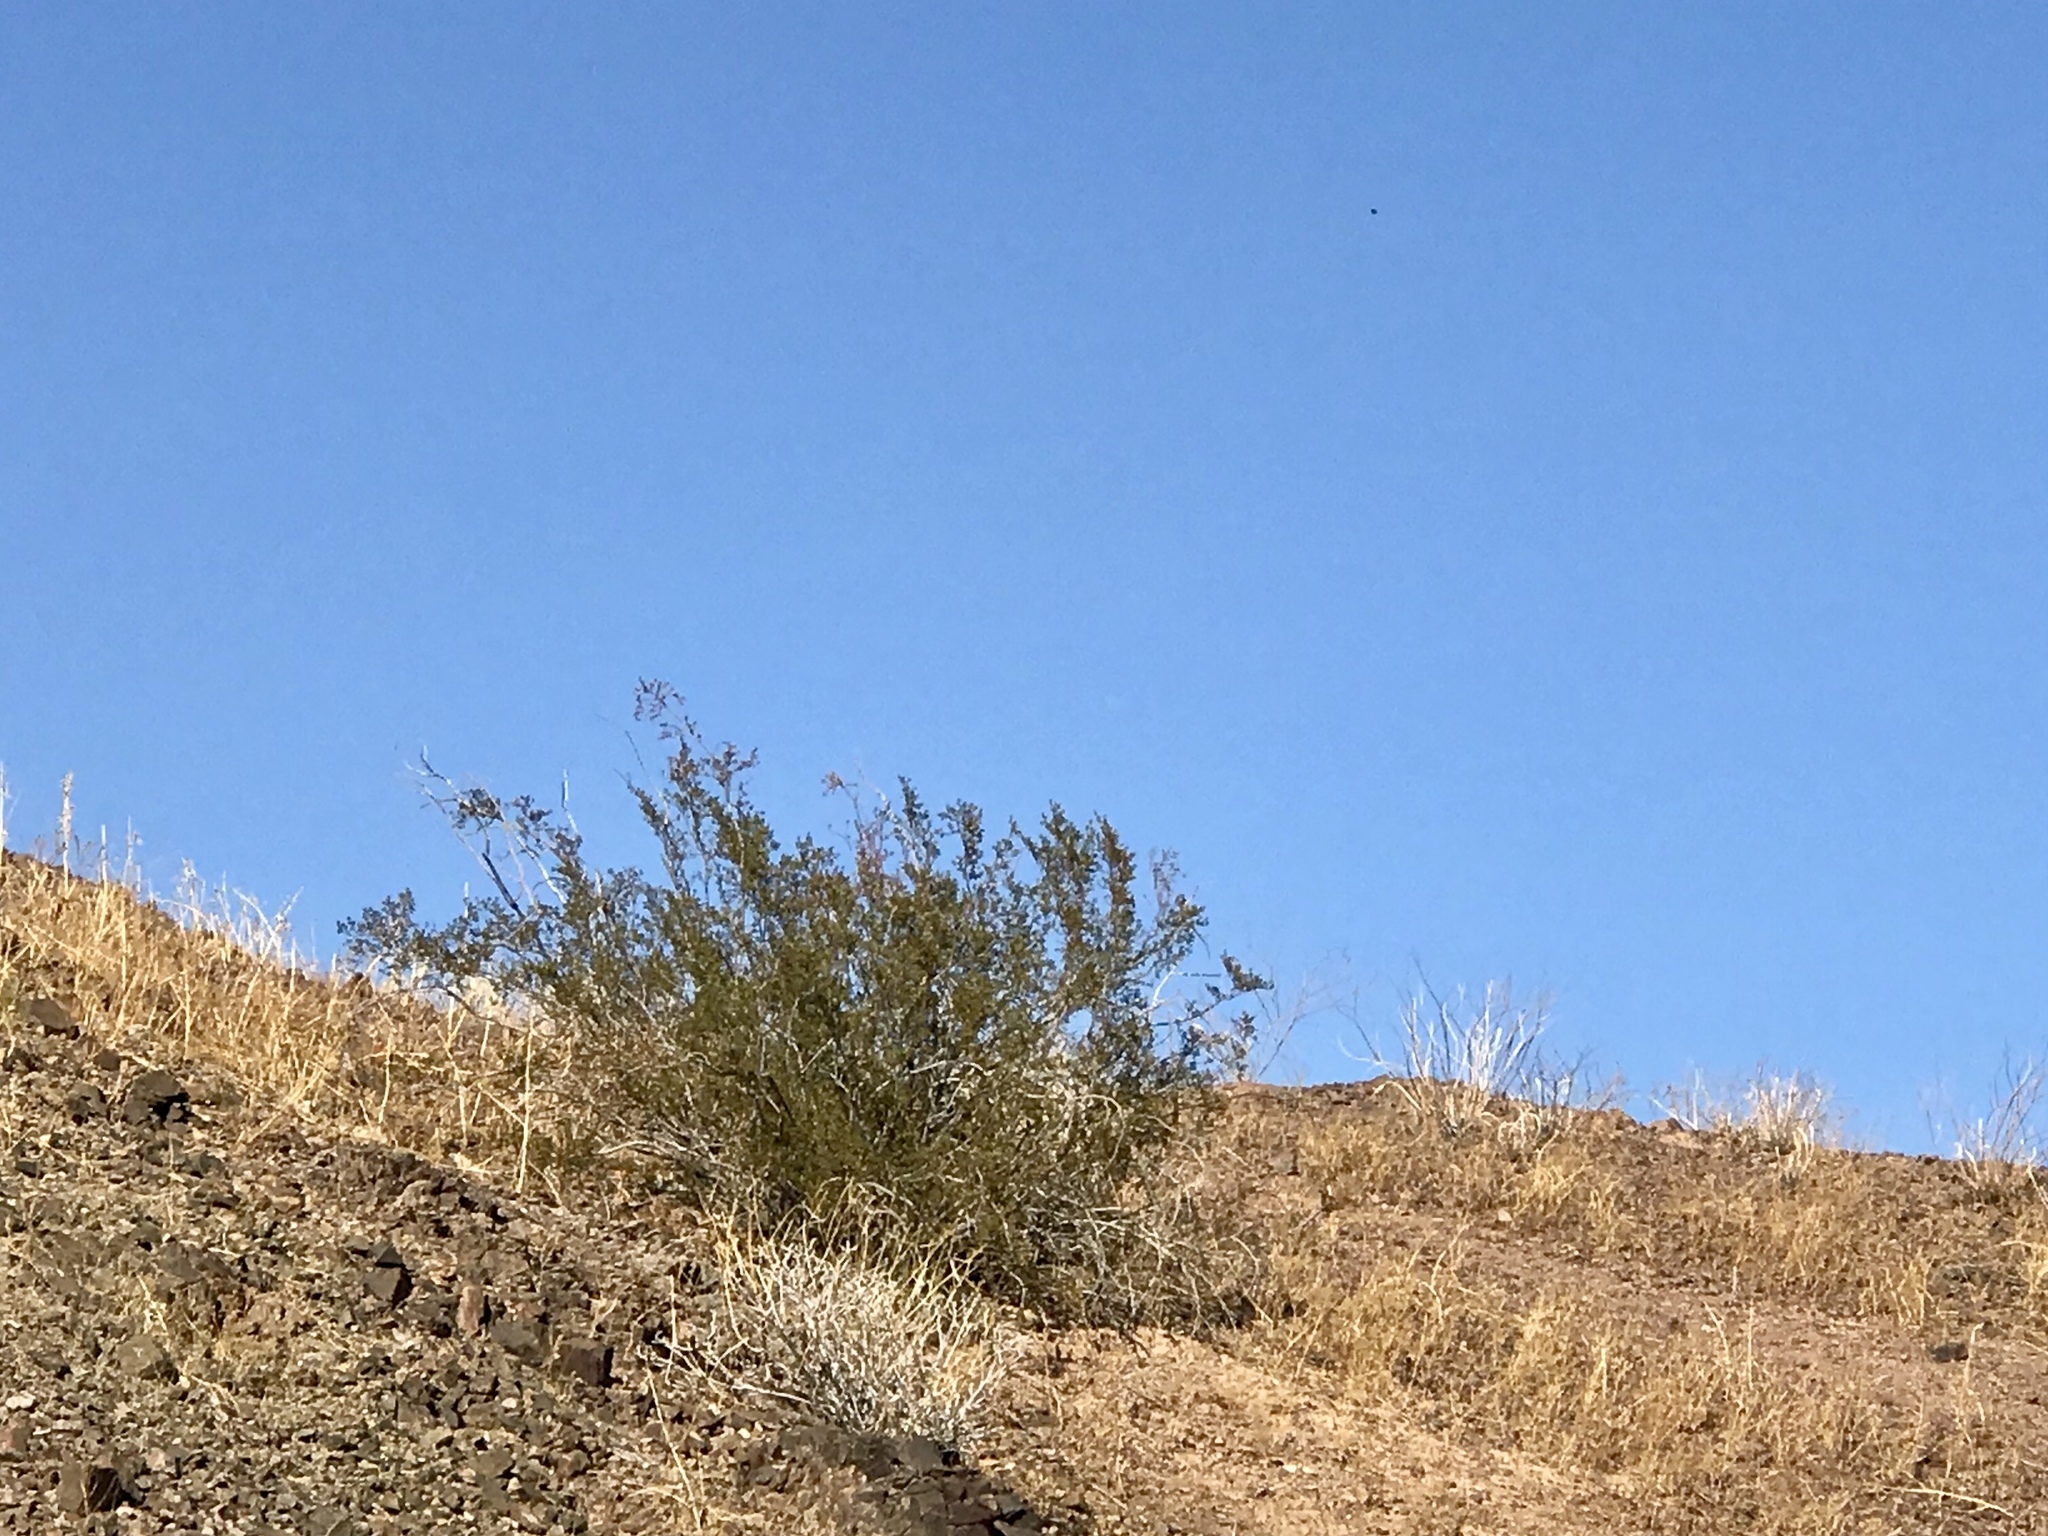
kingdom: Plantae
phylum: Tracheophyta
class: Magnoliopsida
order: Zygophyllales
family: Zygophyllaceae
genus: Larrea
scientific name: Larrea tridentata
